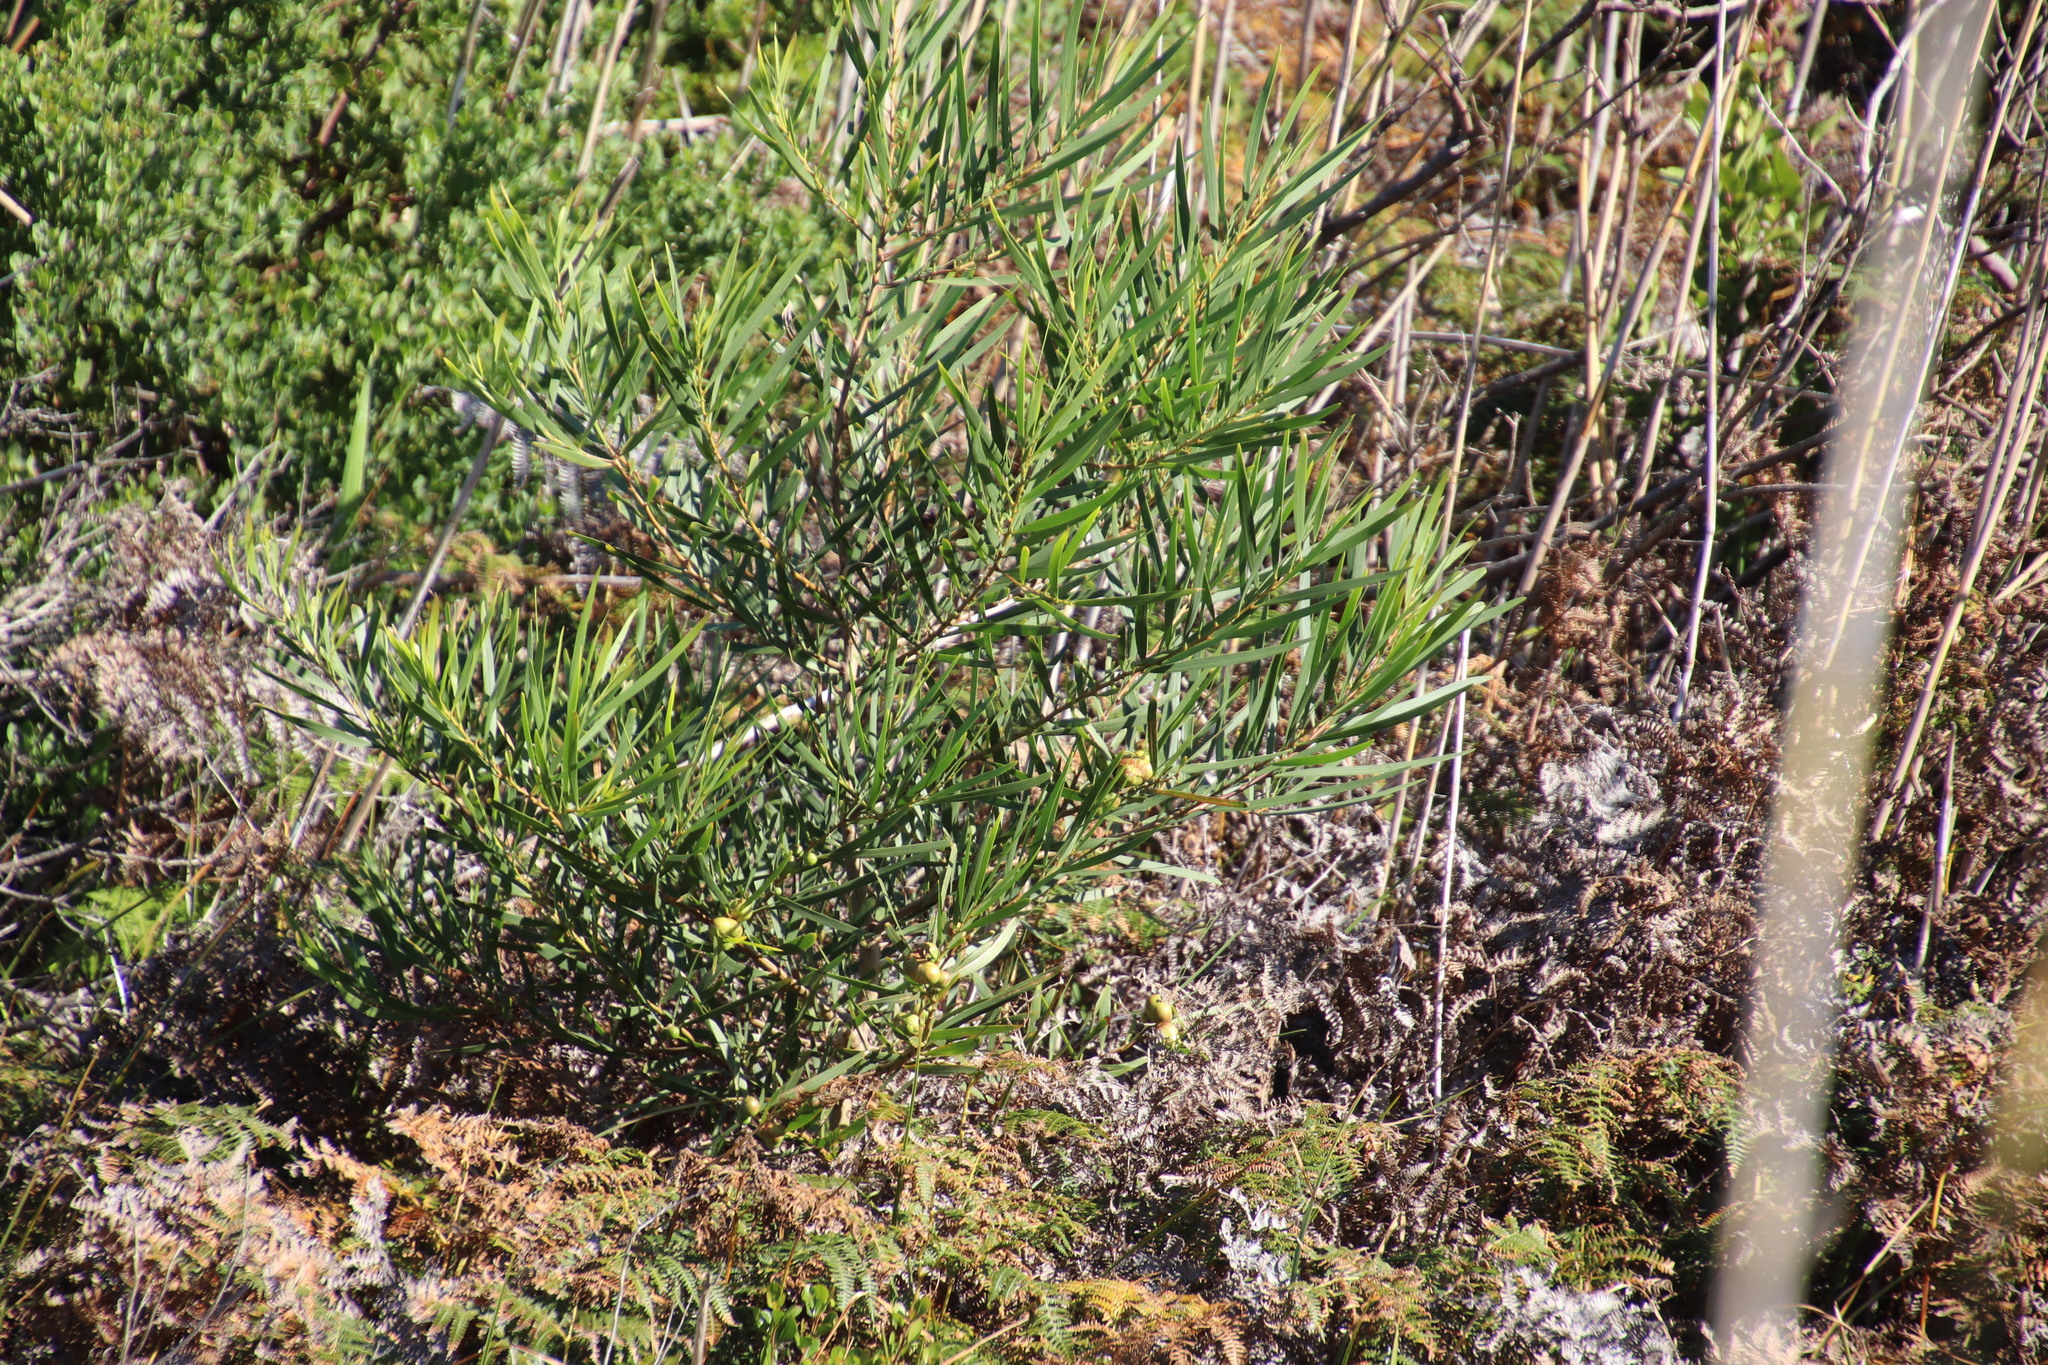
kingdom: Plantae
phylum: Tracheophyta
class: Magnoliopsida
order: Fabales
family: Fabaceae
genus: Acacia
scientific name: Acacia longifolia
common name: Sydney golden wattle
